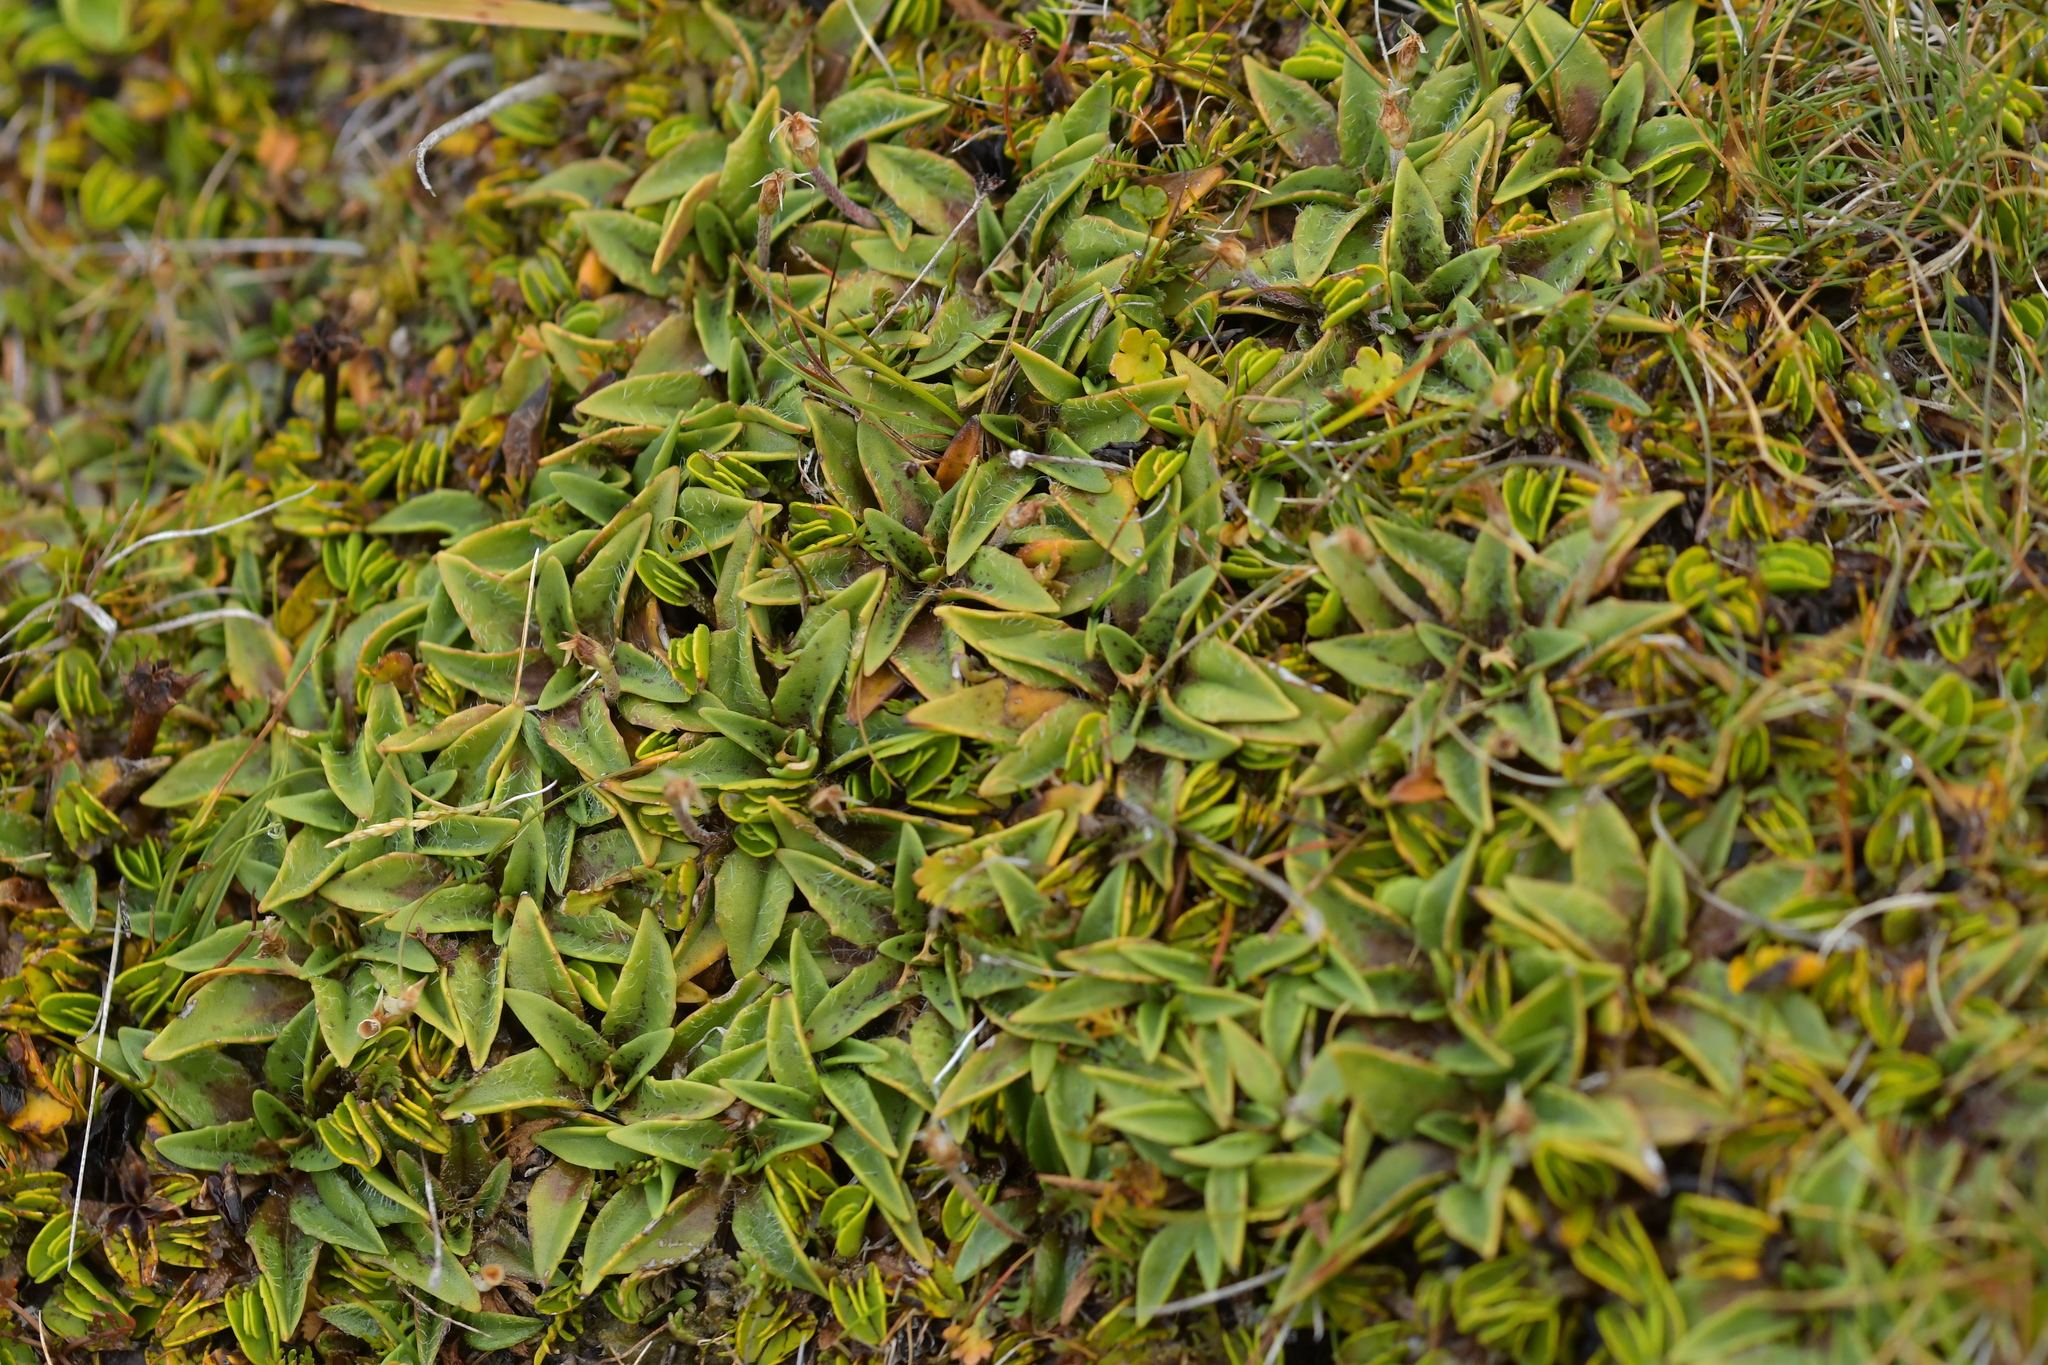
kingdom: Plantae
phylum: Tracheophyta
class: Magnoliopsida
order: Lamiales
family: Plantaginaceae
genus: Plantago
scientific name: Plantago unibracteata
